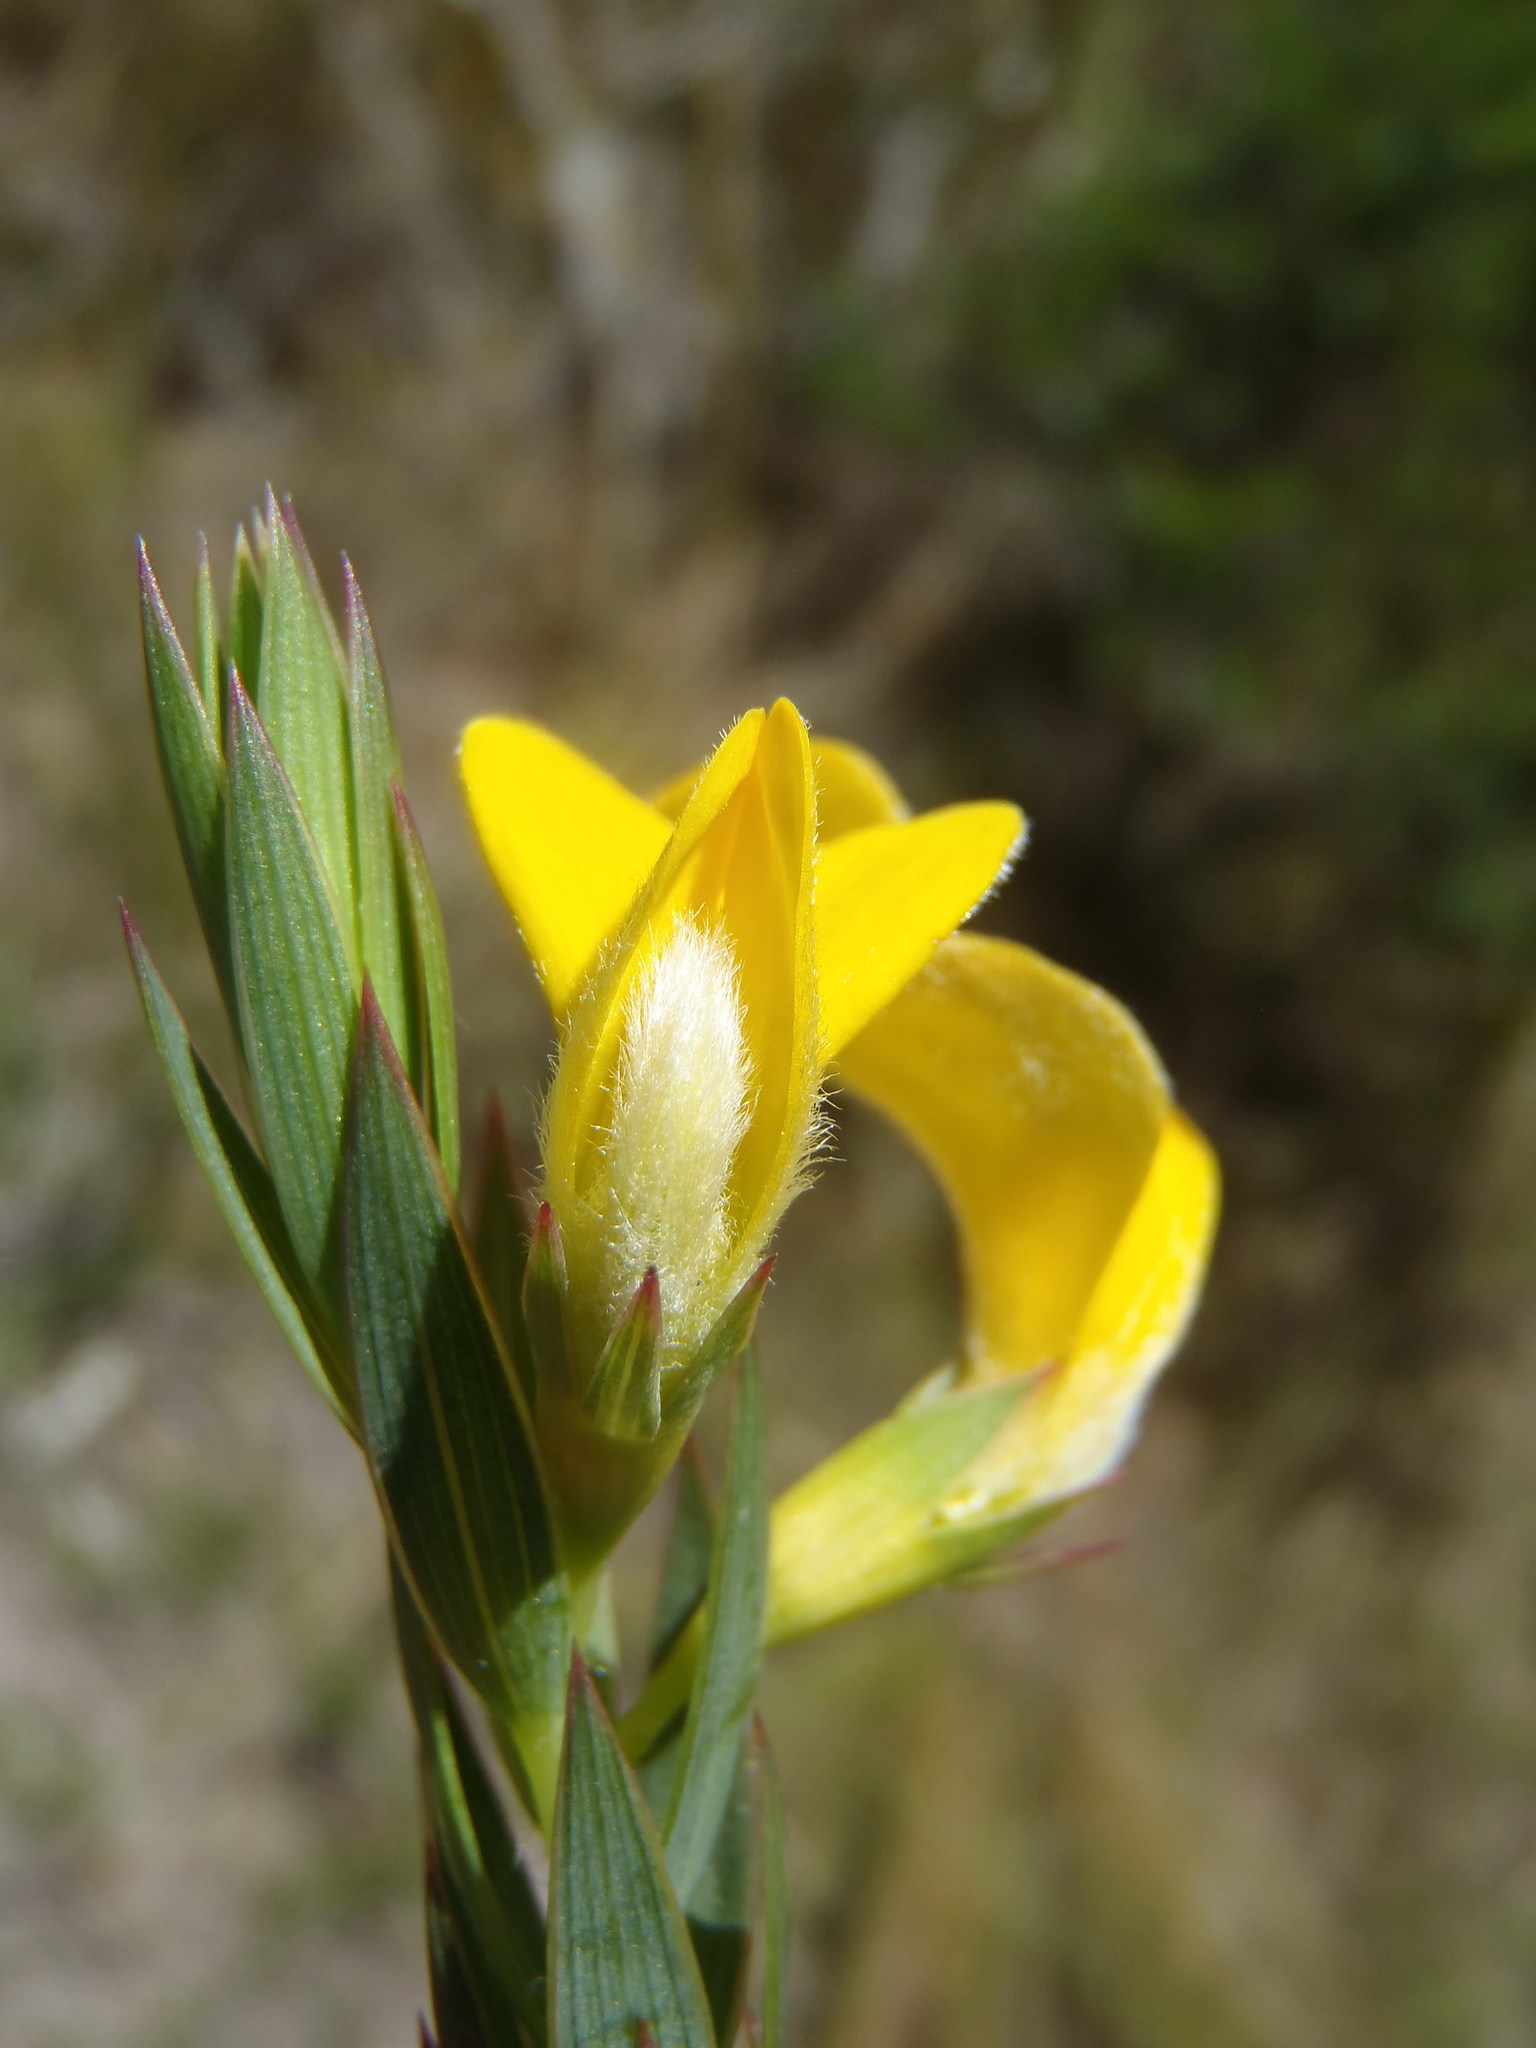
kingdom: Plantae
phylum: Tracheophyta
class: Magnoliopsida
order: Fabales
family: Fabaceae
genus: Aspalathus
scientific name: Aspalathus angustifolia
